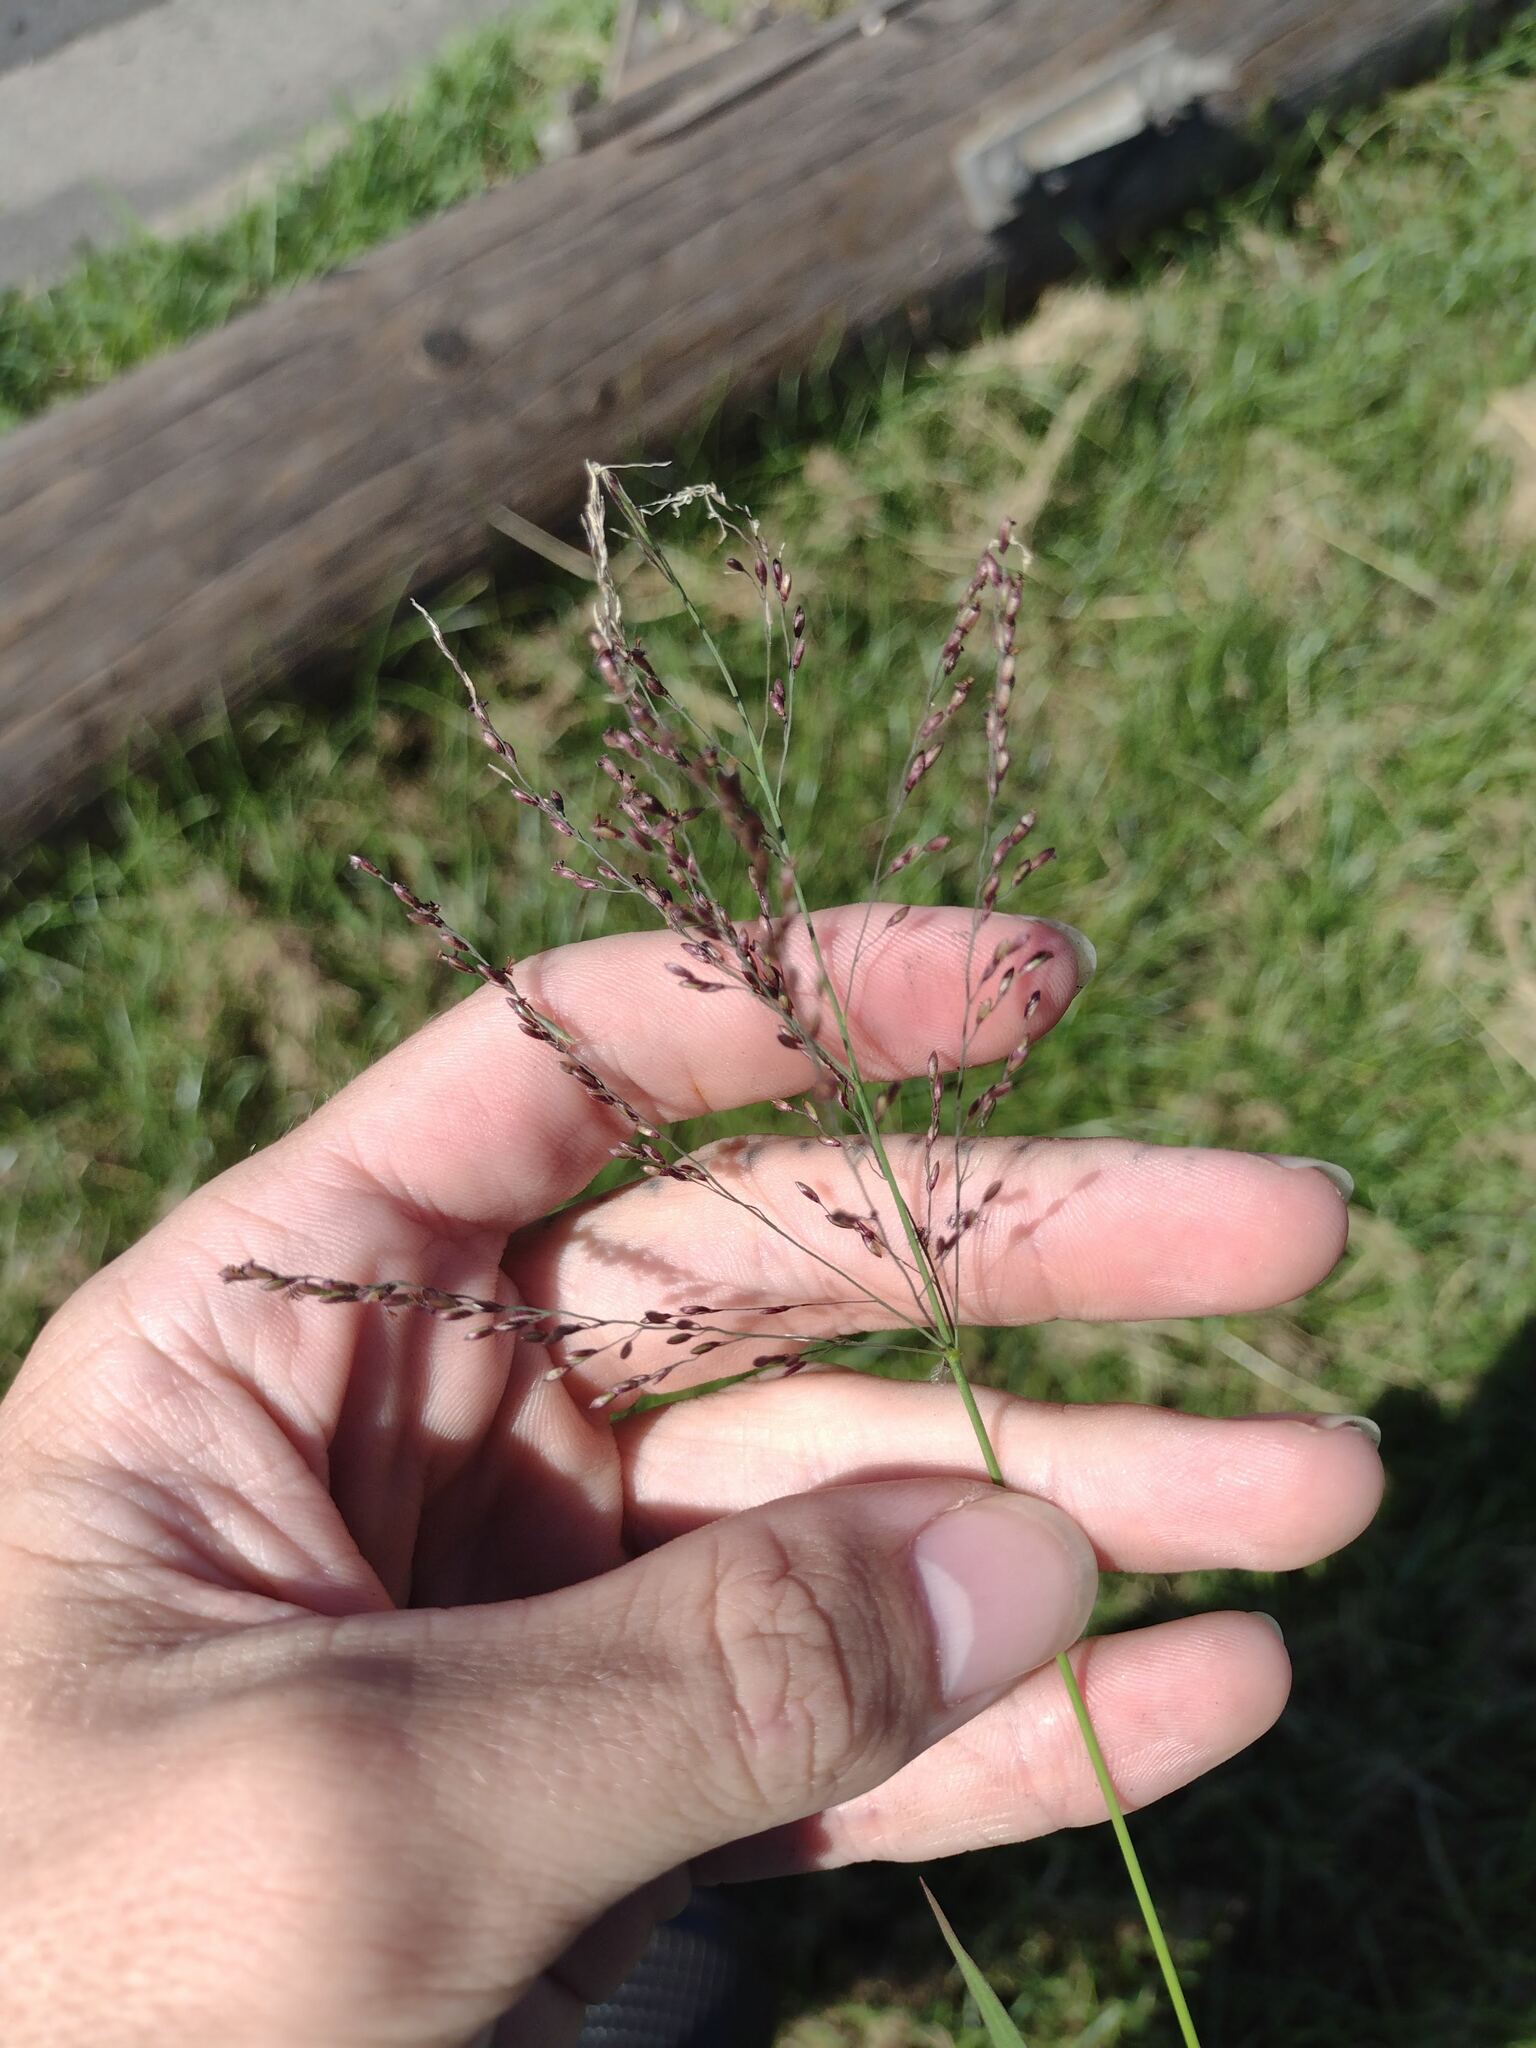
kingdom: Plantae
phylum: Tracheophyta
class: Liliopsida
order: Poales
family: Poaceae
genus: Megathyrsus
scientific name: Megathyrsus maximus
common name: Guineagrass
